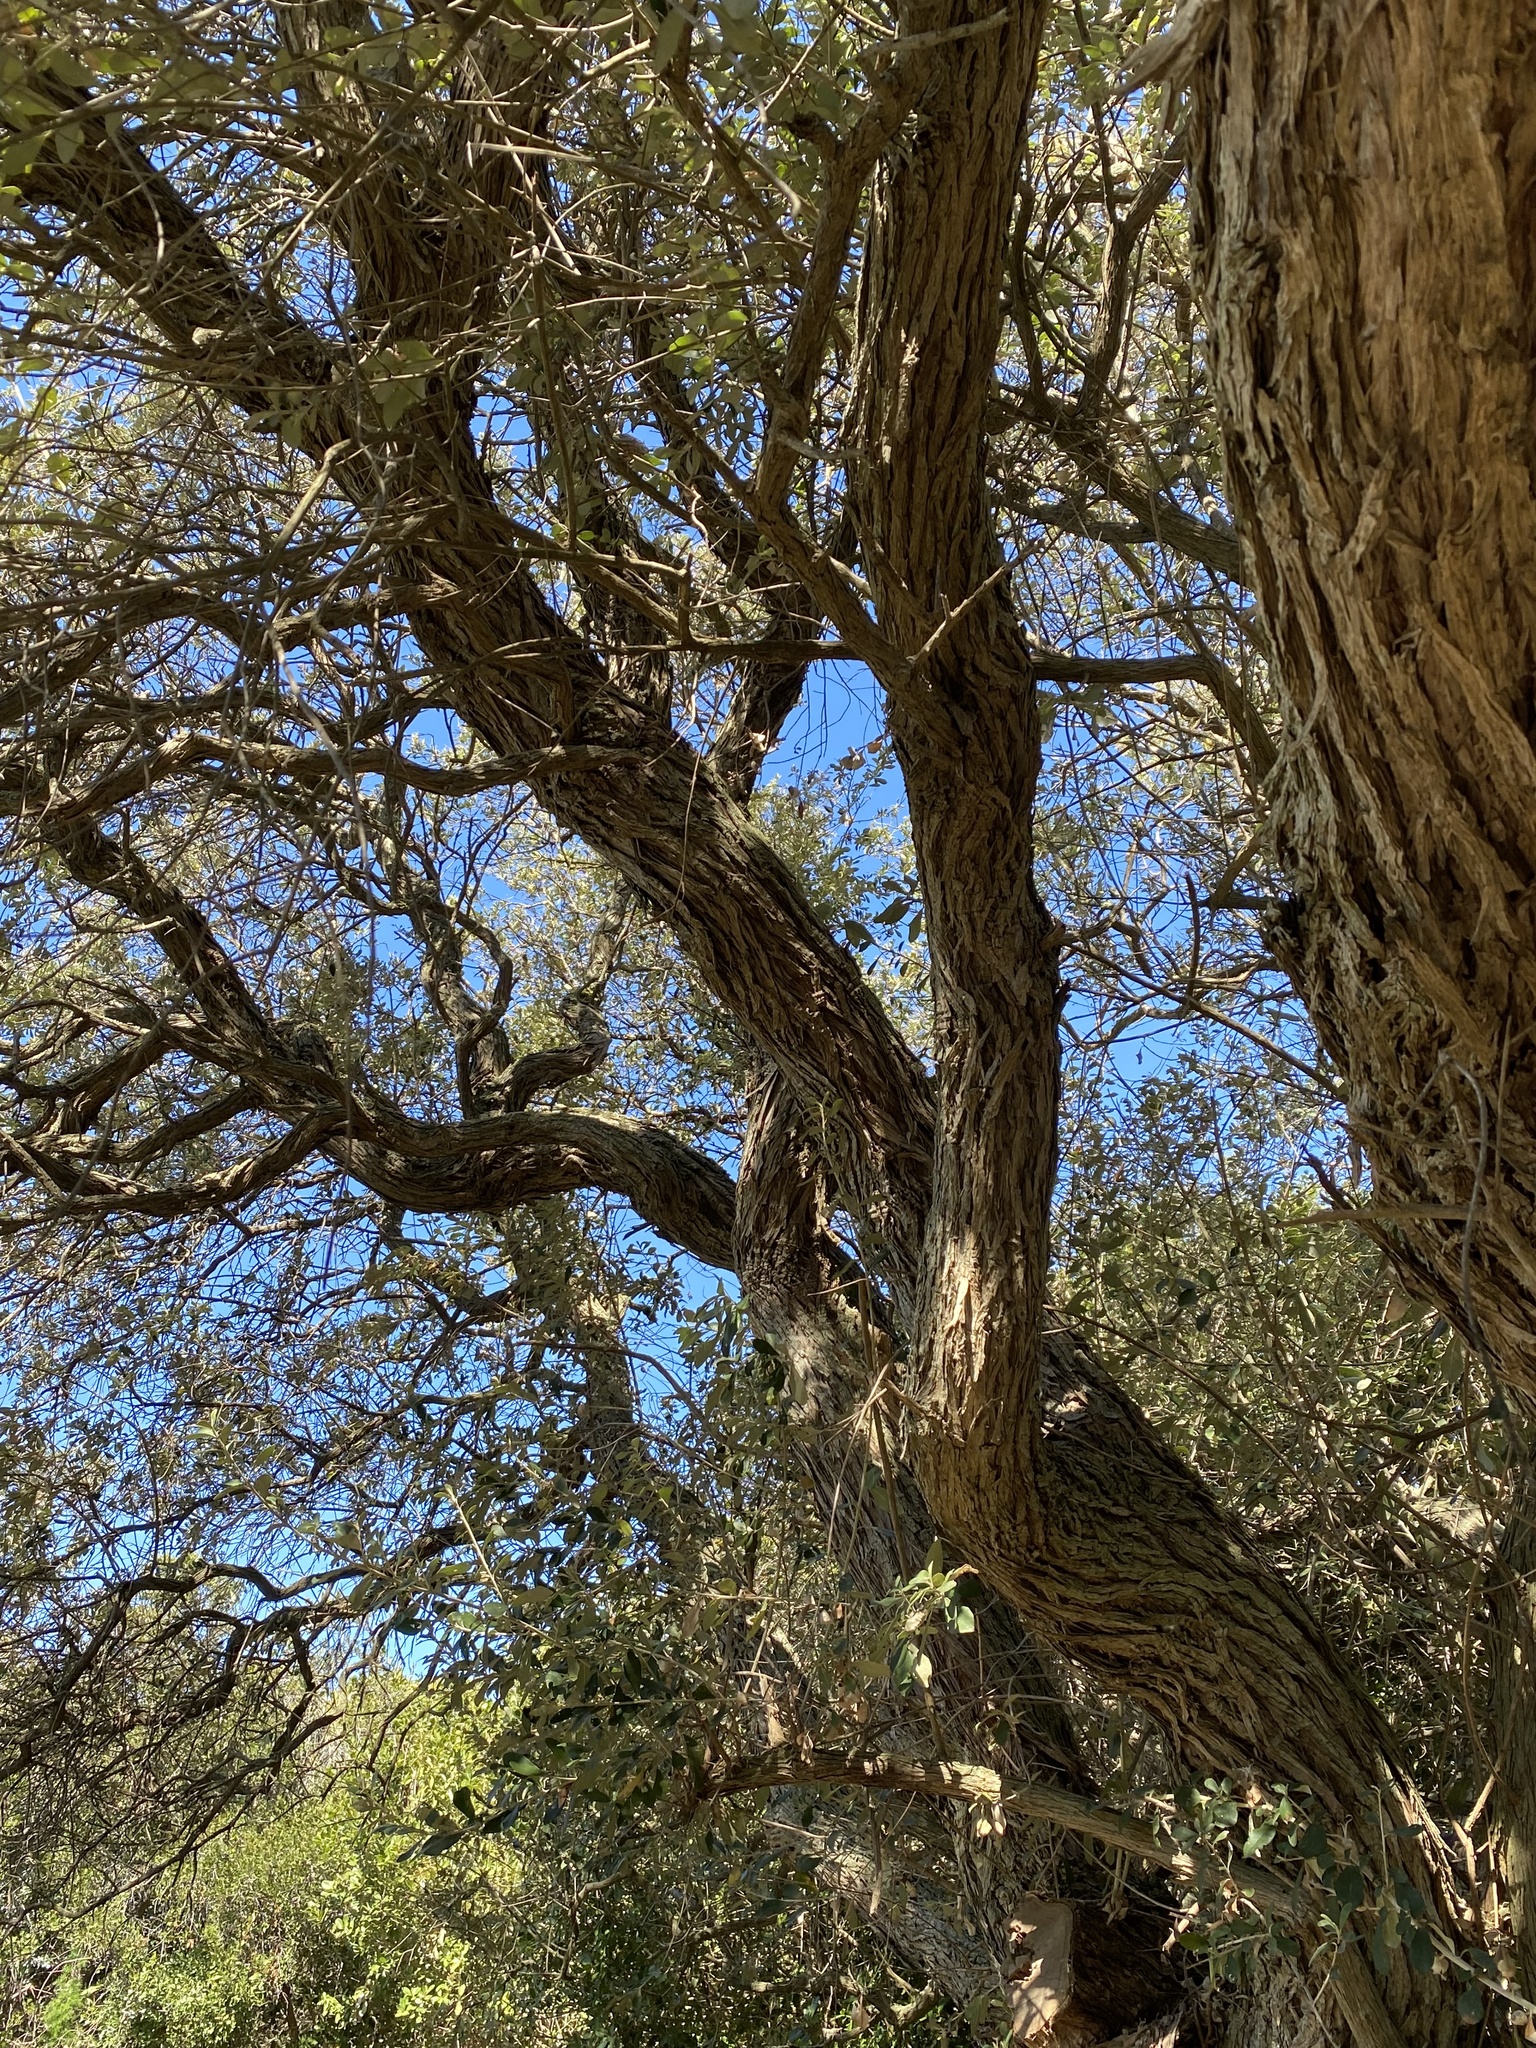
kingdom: Plantae
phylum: Tracheophyta
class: Magnoliopsida
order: Asterales
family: Asteraceae
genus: Tarchonanthus
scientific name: Tarchonanthus littoralis
